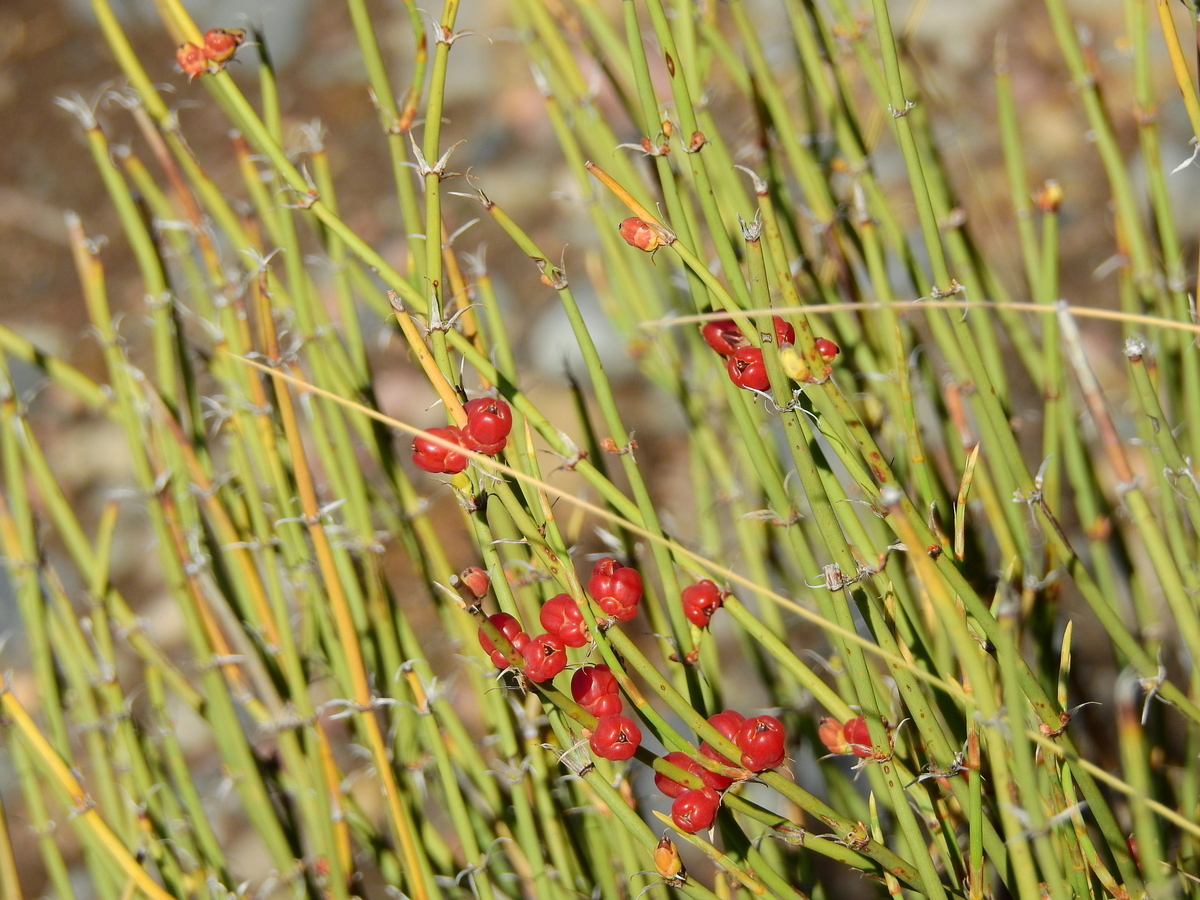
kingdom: Plantae
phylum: Tracheophyta
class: Gnetopsida
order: Ephedrales
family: Ephedraceae
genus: Ephedra
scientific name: Ephedra americana
